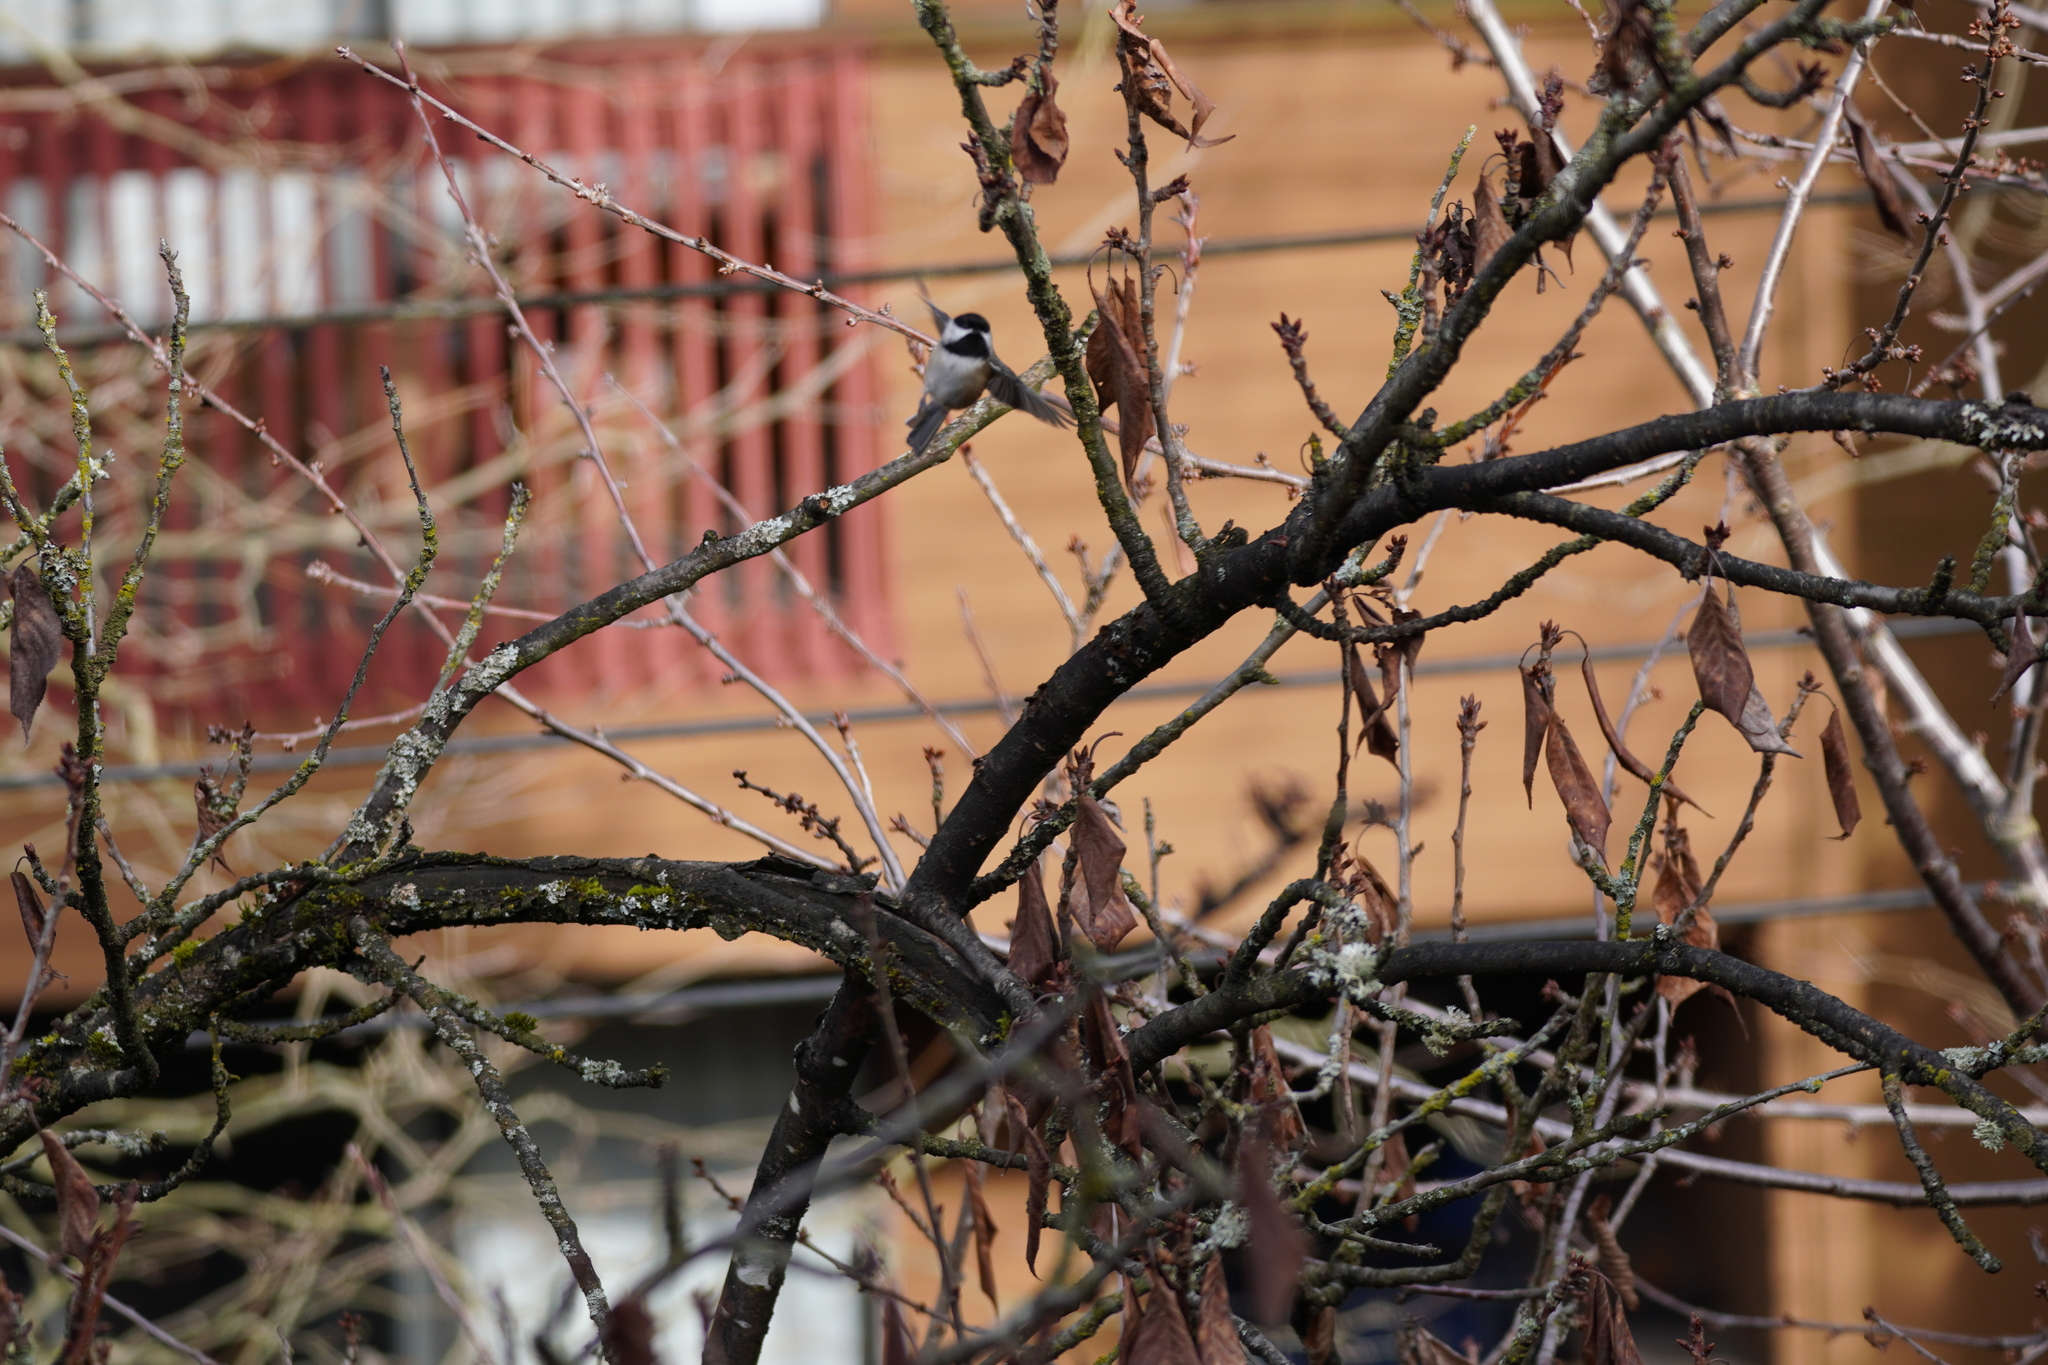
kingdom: Animalia
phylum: Chordata
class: Aves
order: Passeriformes
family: Paridae
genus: Poecile
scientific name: Poecile atricapillus
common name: Black-capped chickadee
